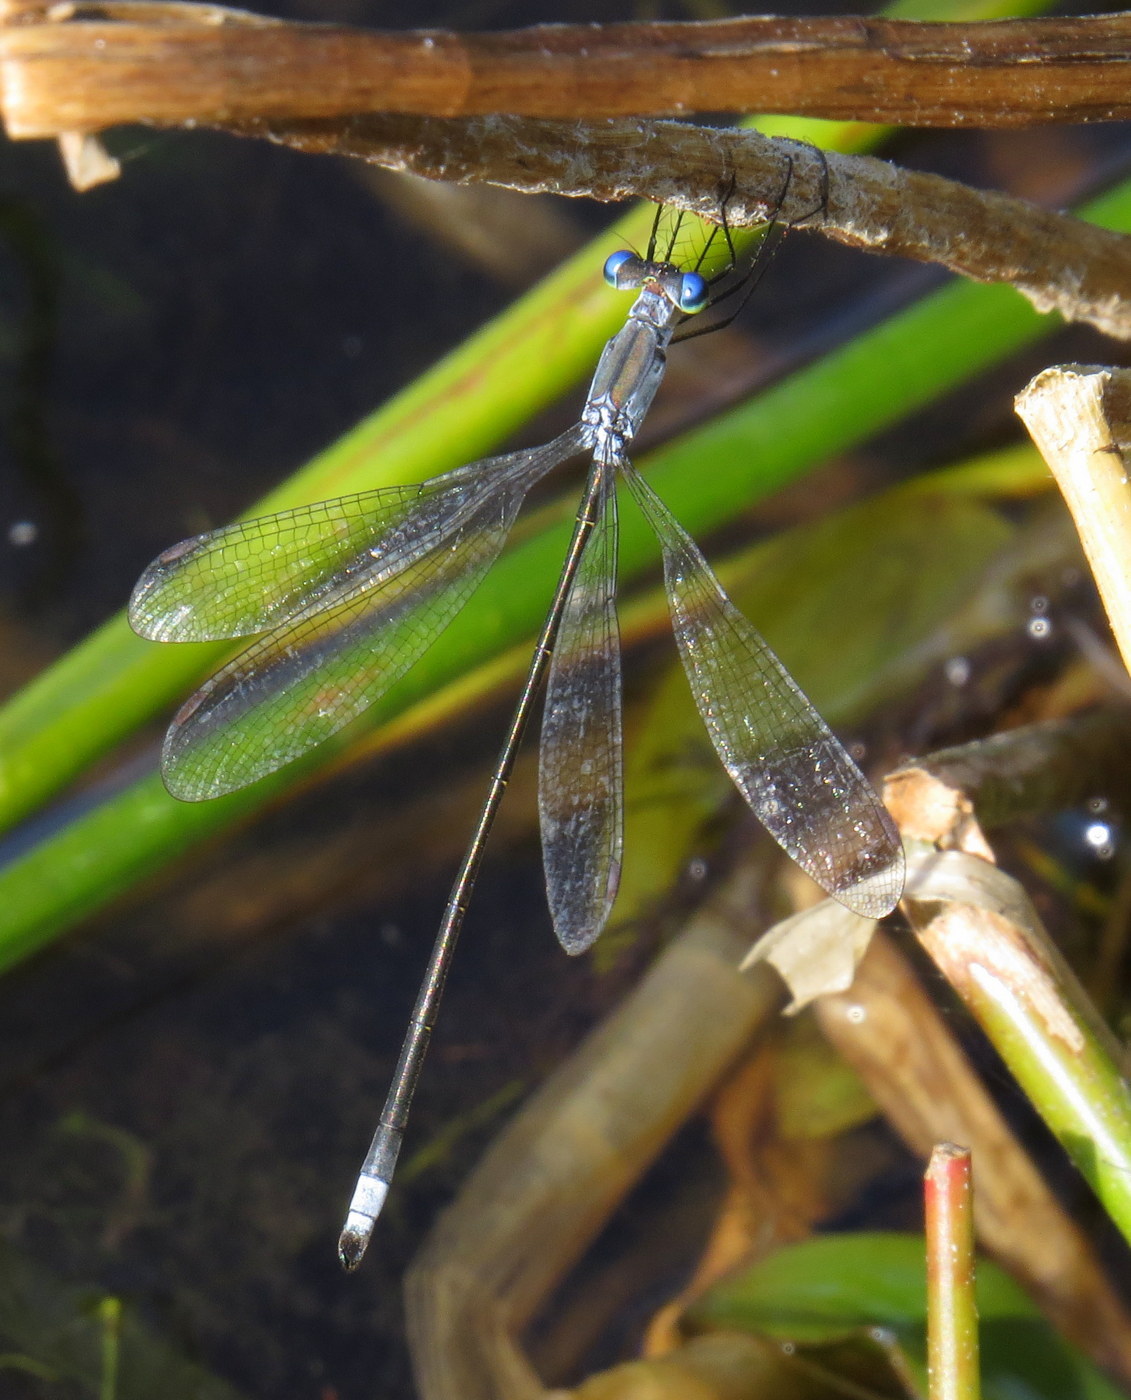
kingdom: Animalia
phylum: Arthropoda
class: Insecta
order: Odonata
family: Lestidae
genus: Lestes
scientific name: Lestes vigilax
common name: Swamp spreadwing
